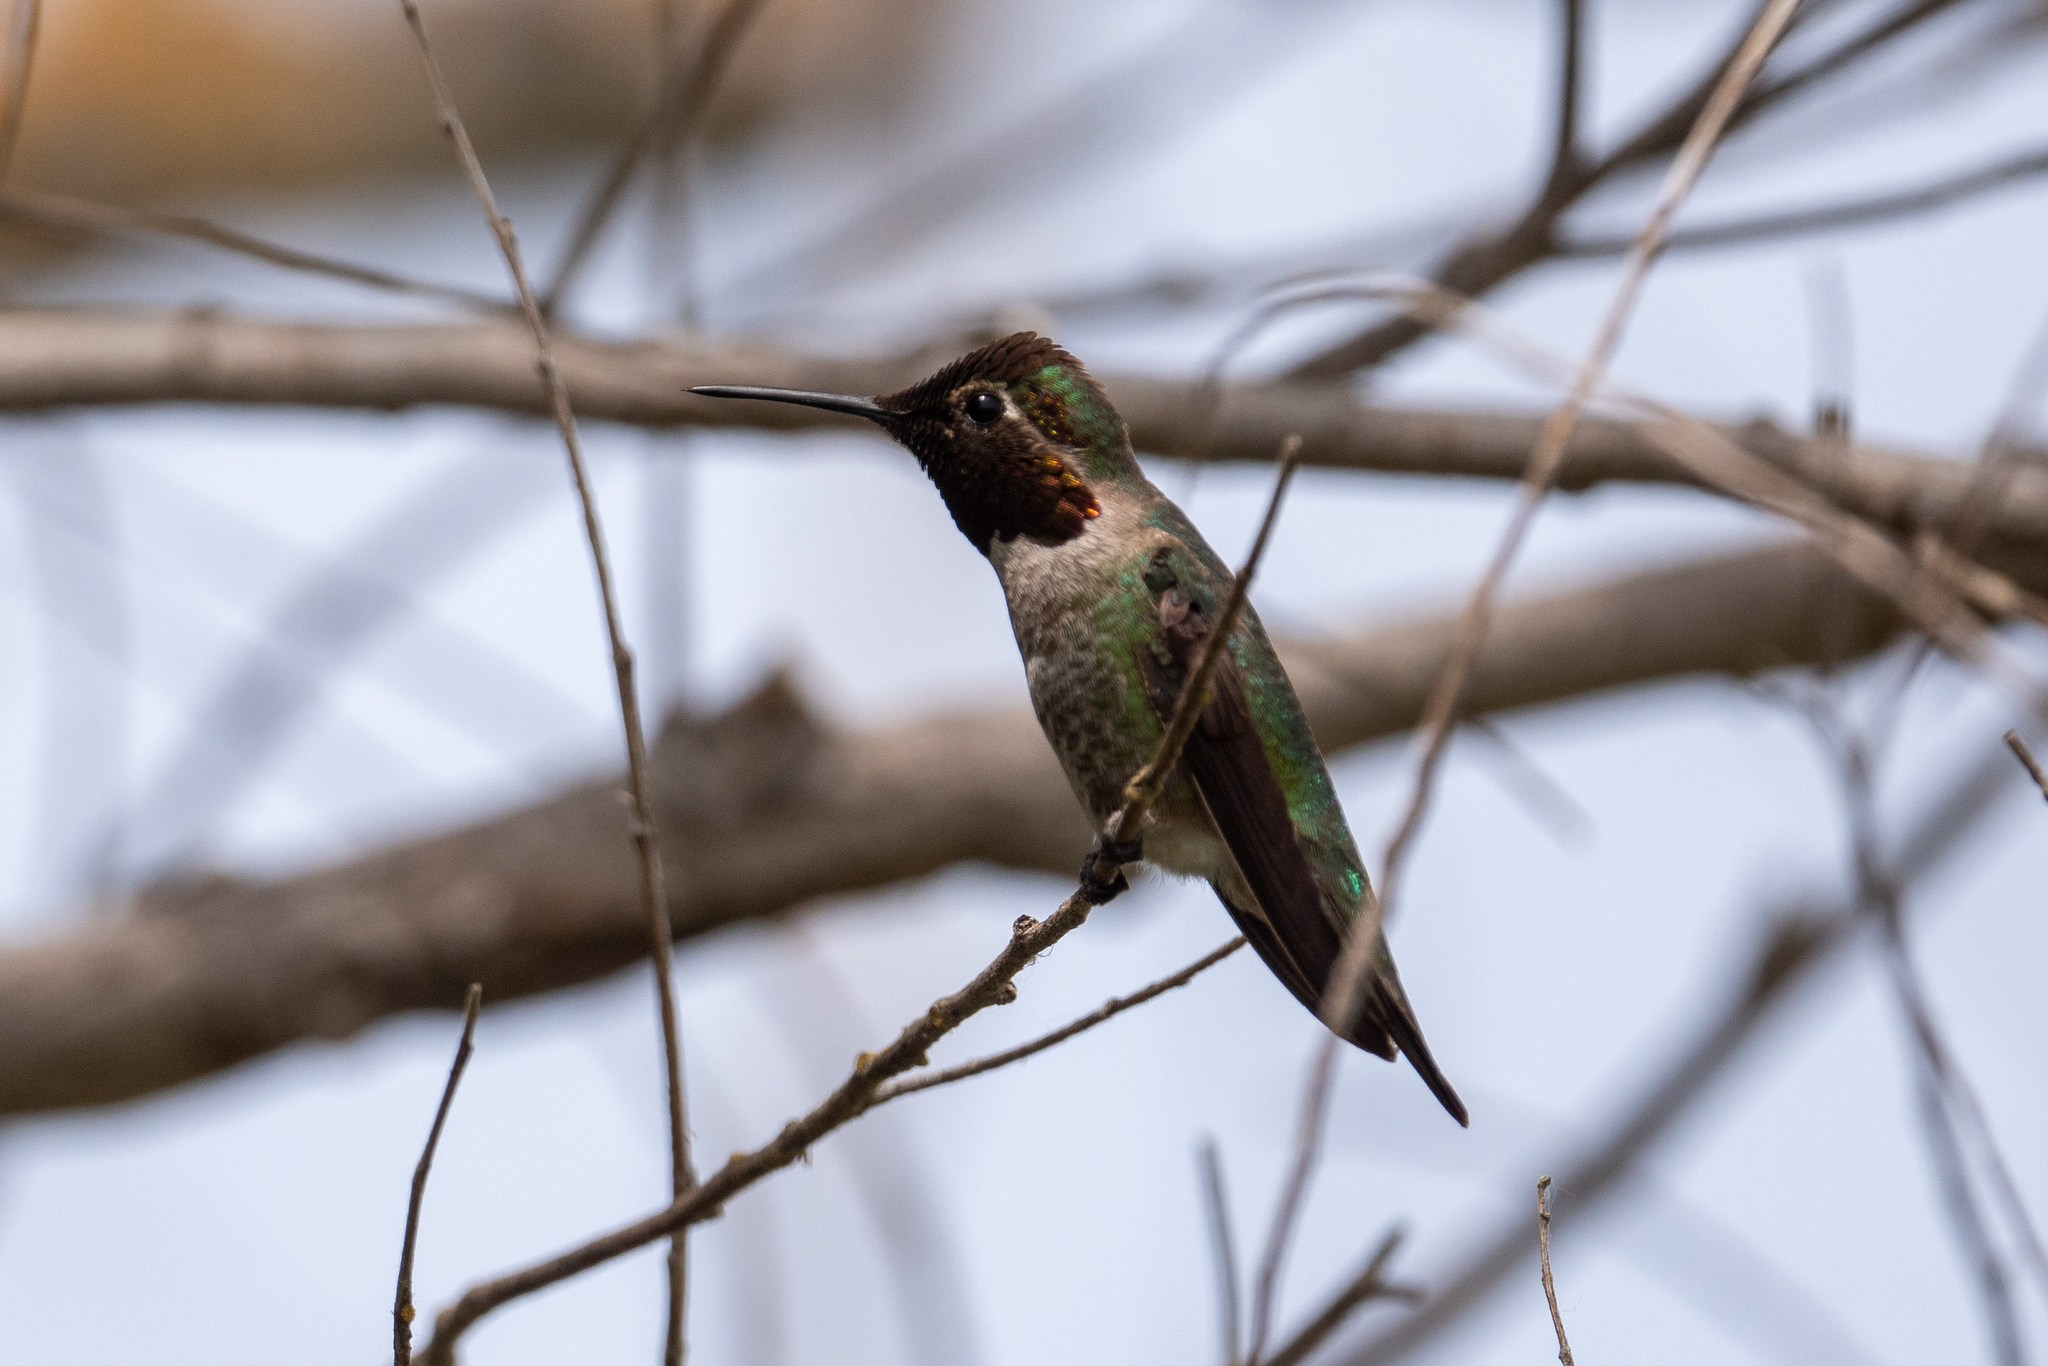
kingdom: Animalia
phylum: Chordata
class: Aves
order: Apodiformes
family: Trochilidae
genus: Calypte
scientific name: Calypte anna
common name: Anna's hummingbird
